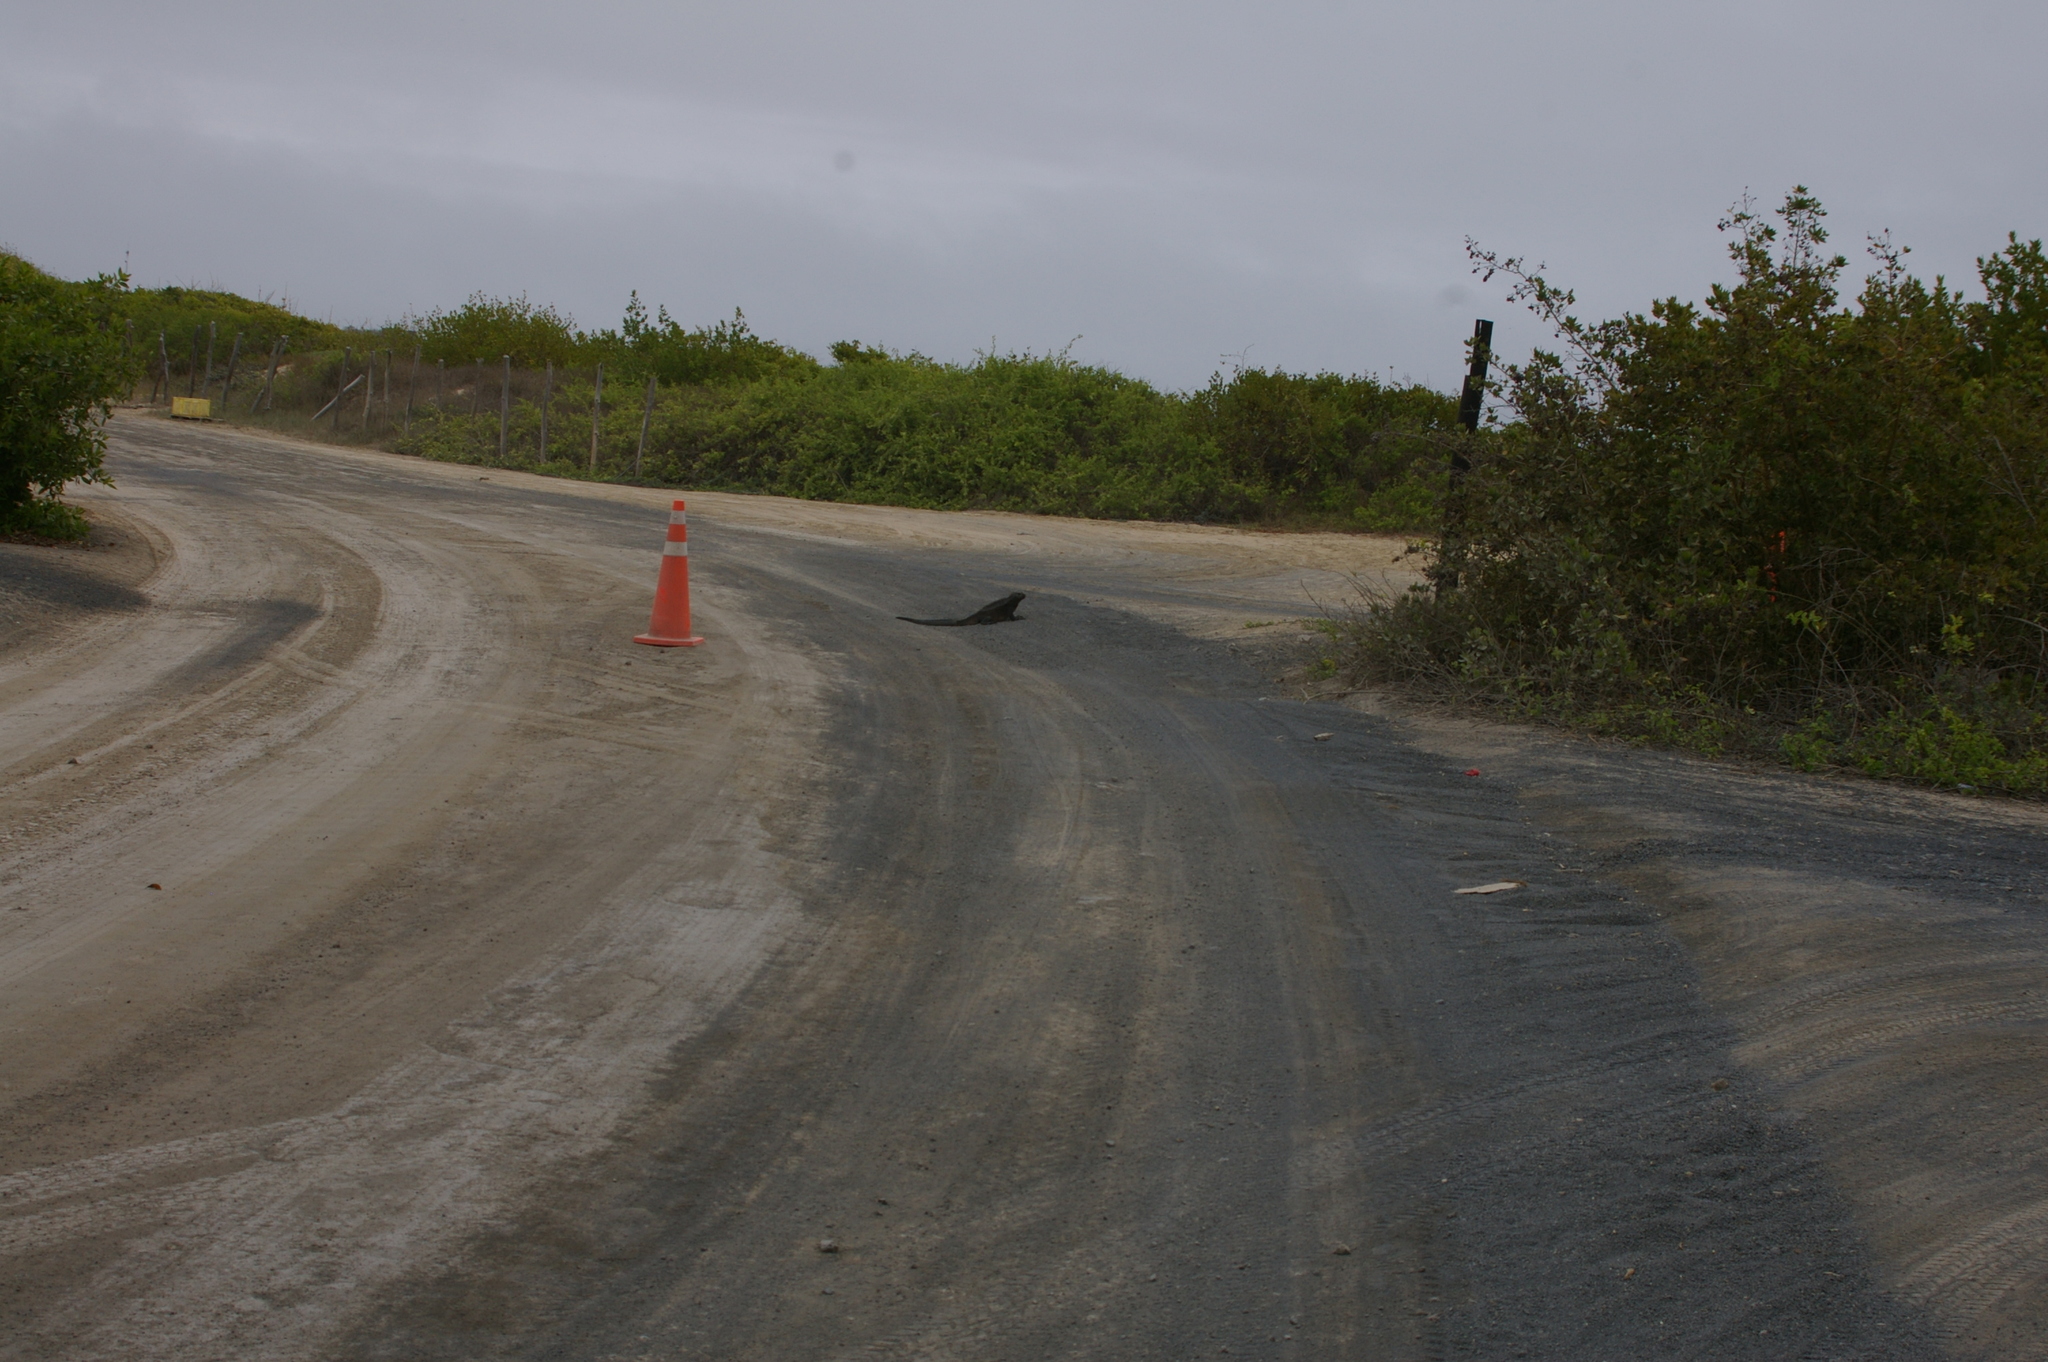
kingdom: Animalia
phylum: Chordata
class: Squamata
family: Iguanidae
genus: Amblyrhynchus
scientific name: Amblyrhynchus cristatus
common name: Marine iguana
